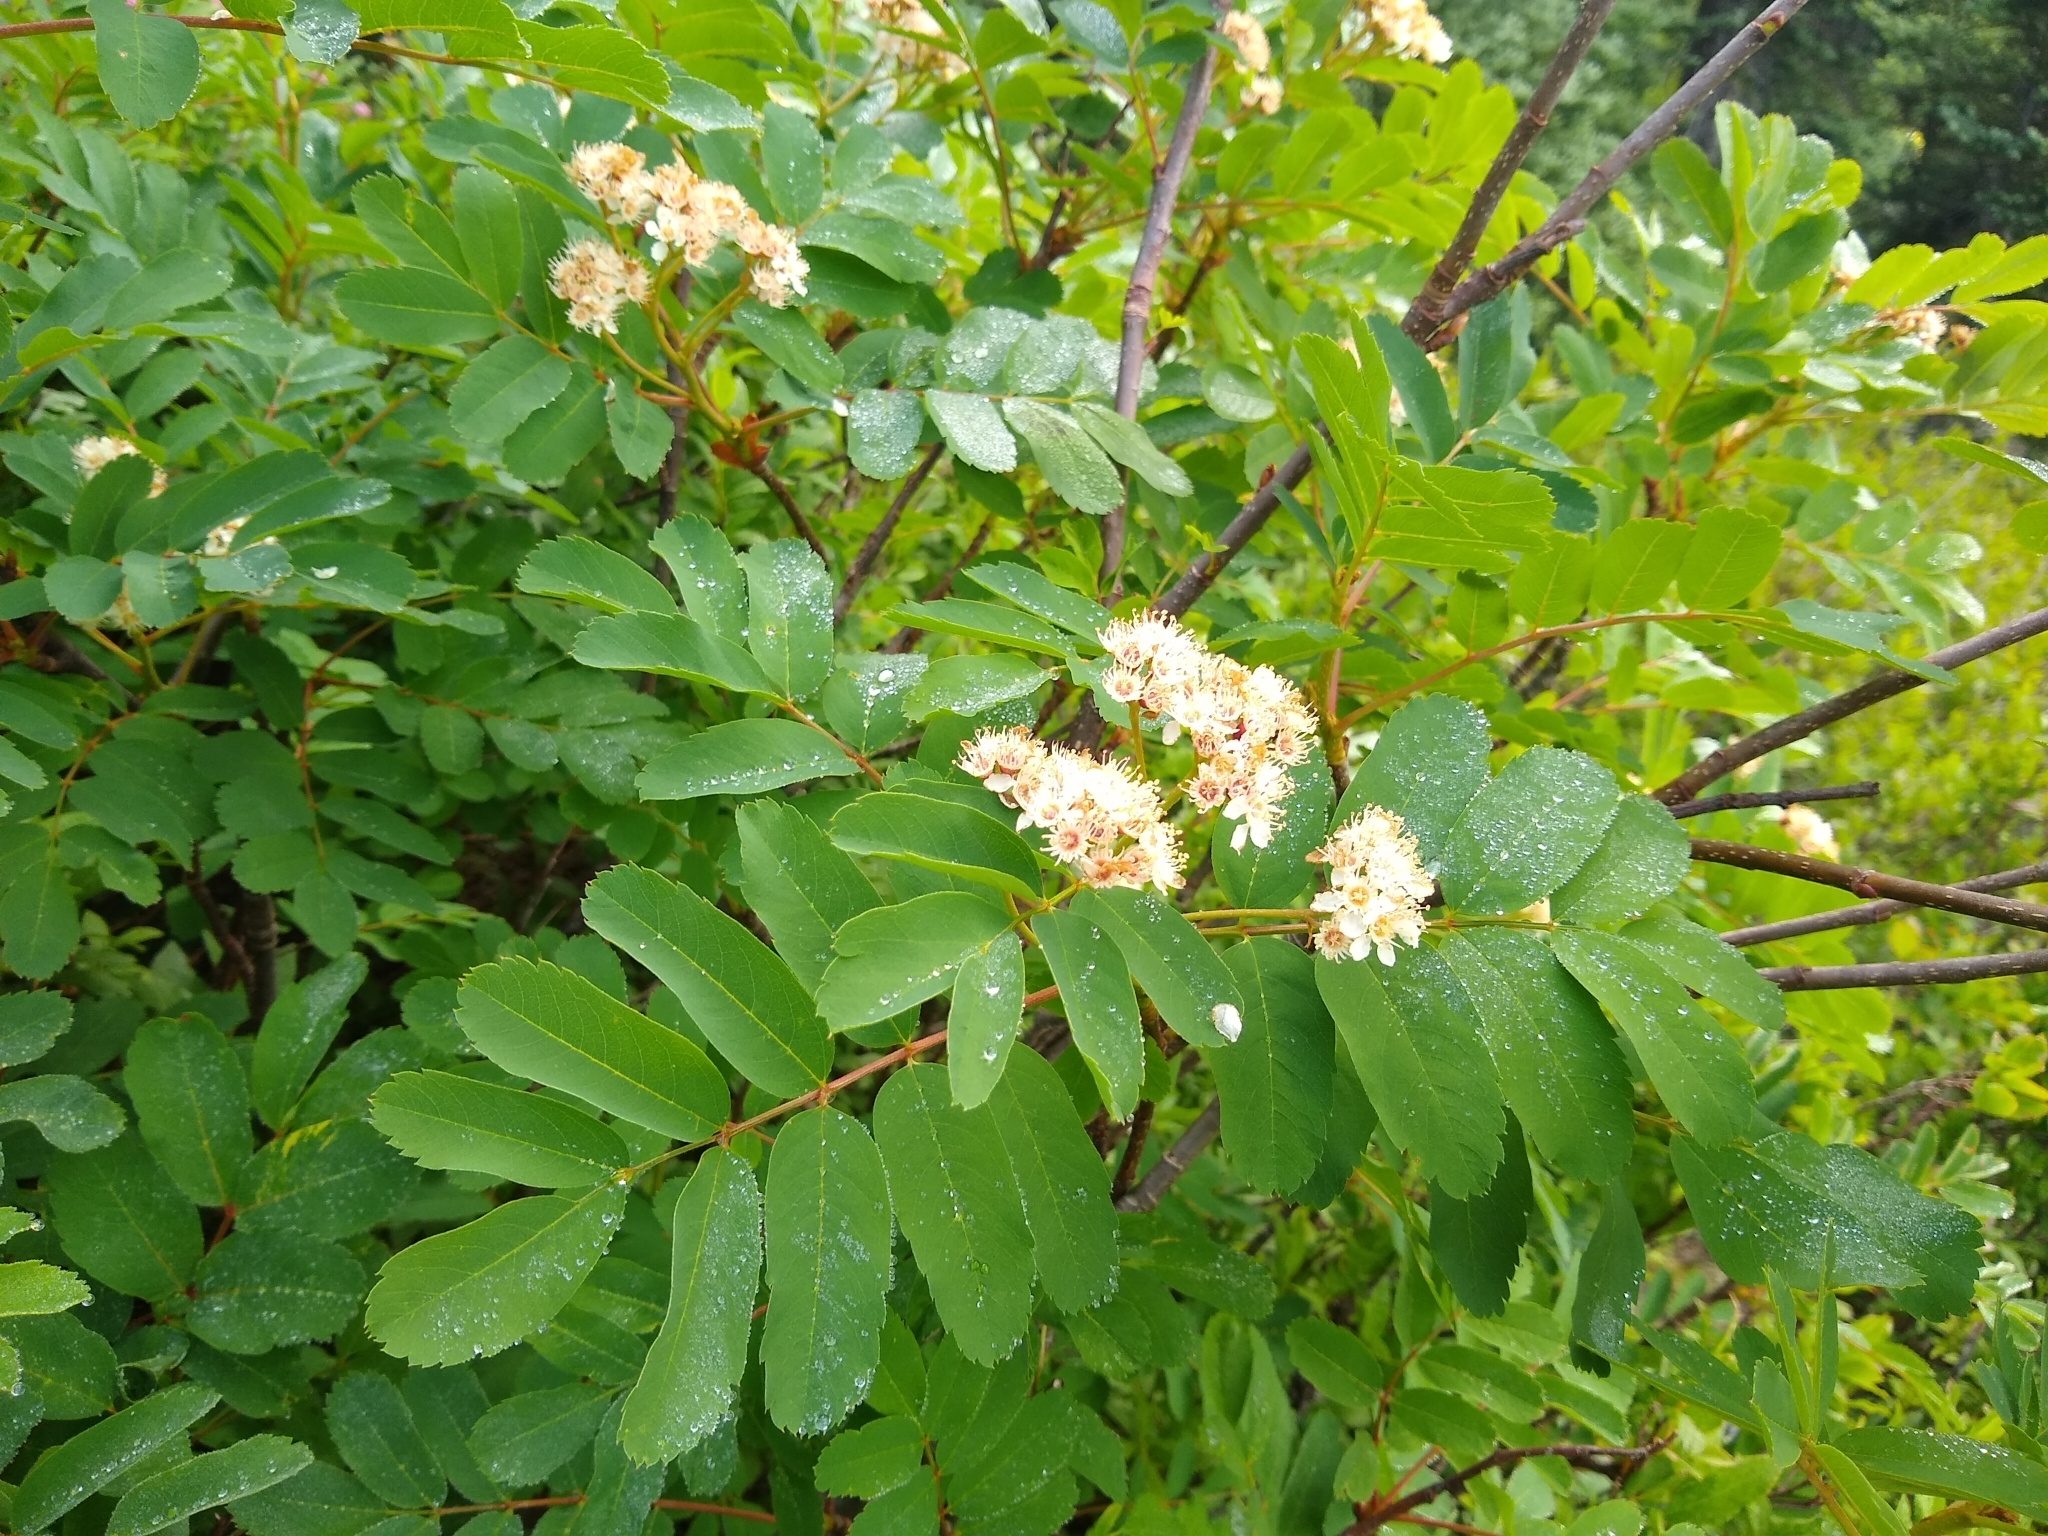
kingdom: Plantae
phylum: Tracheophyta
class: Magnoliopsida
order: Rosales
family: Rosaceae
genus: Sorbus
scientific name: Sorbus sitchensis
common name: Sitka mountain-ash
